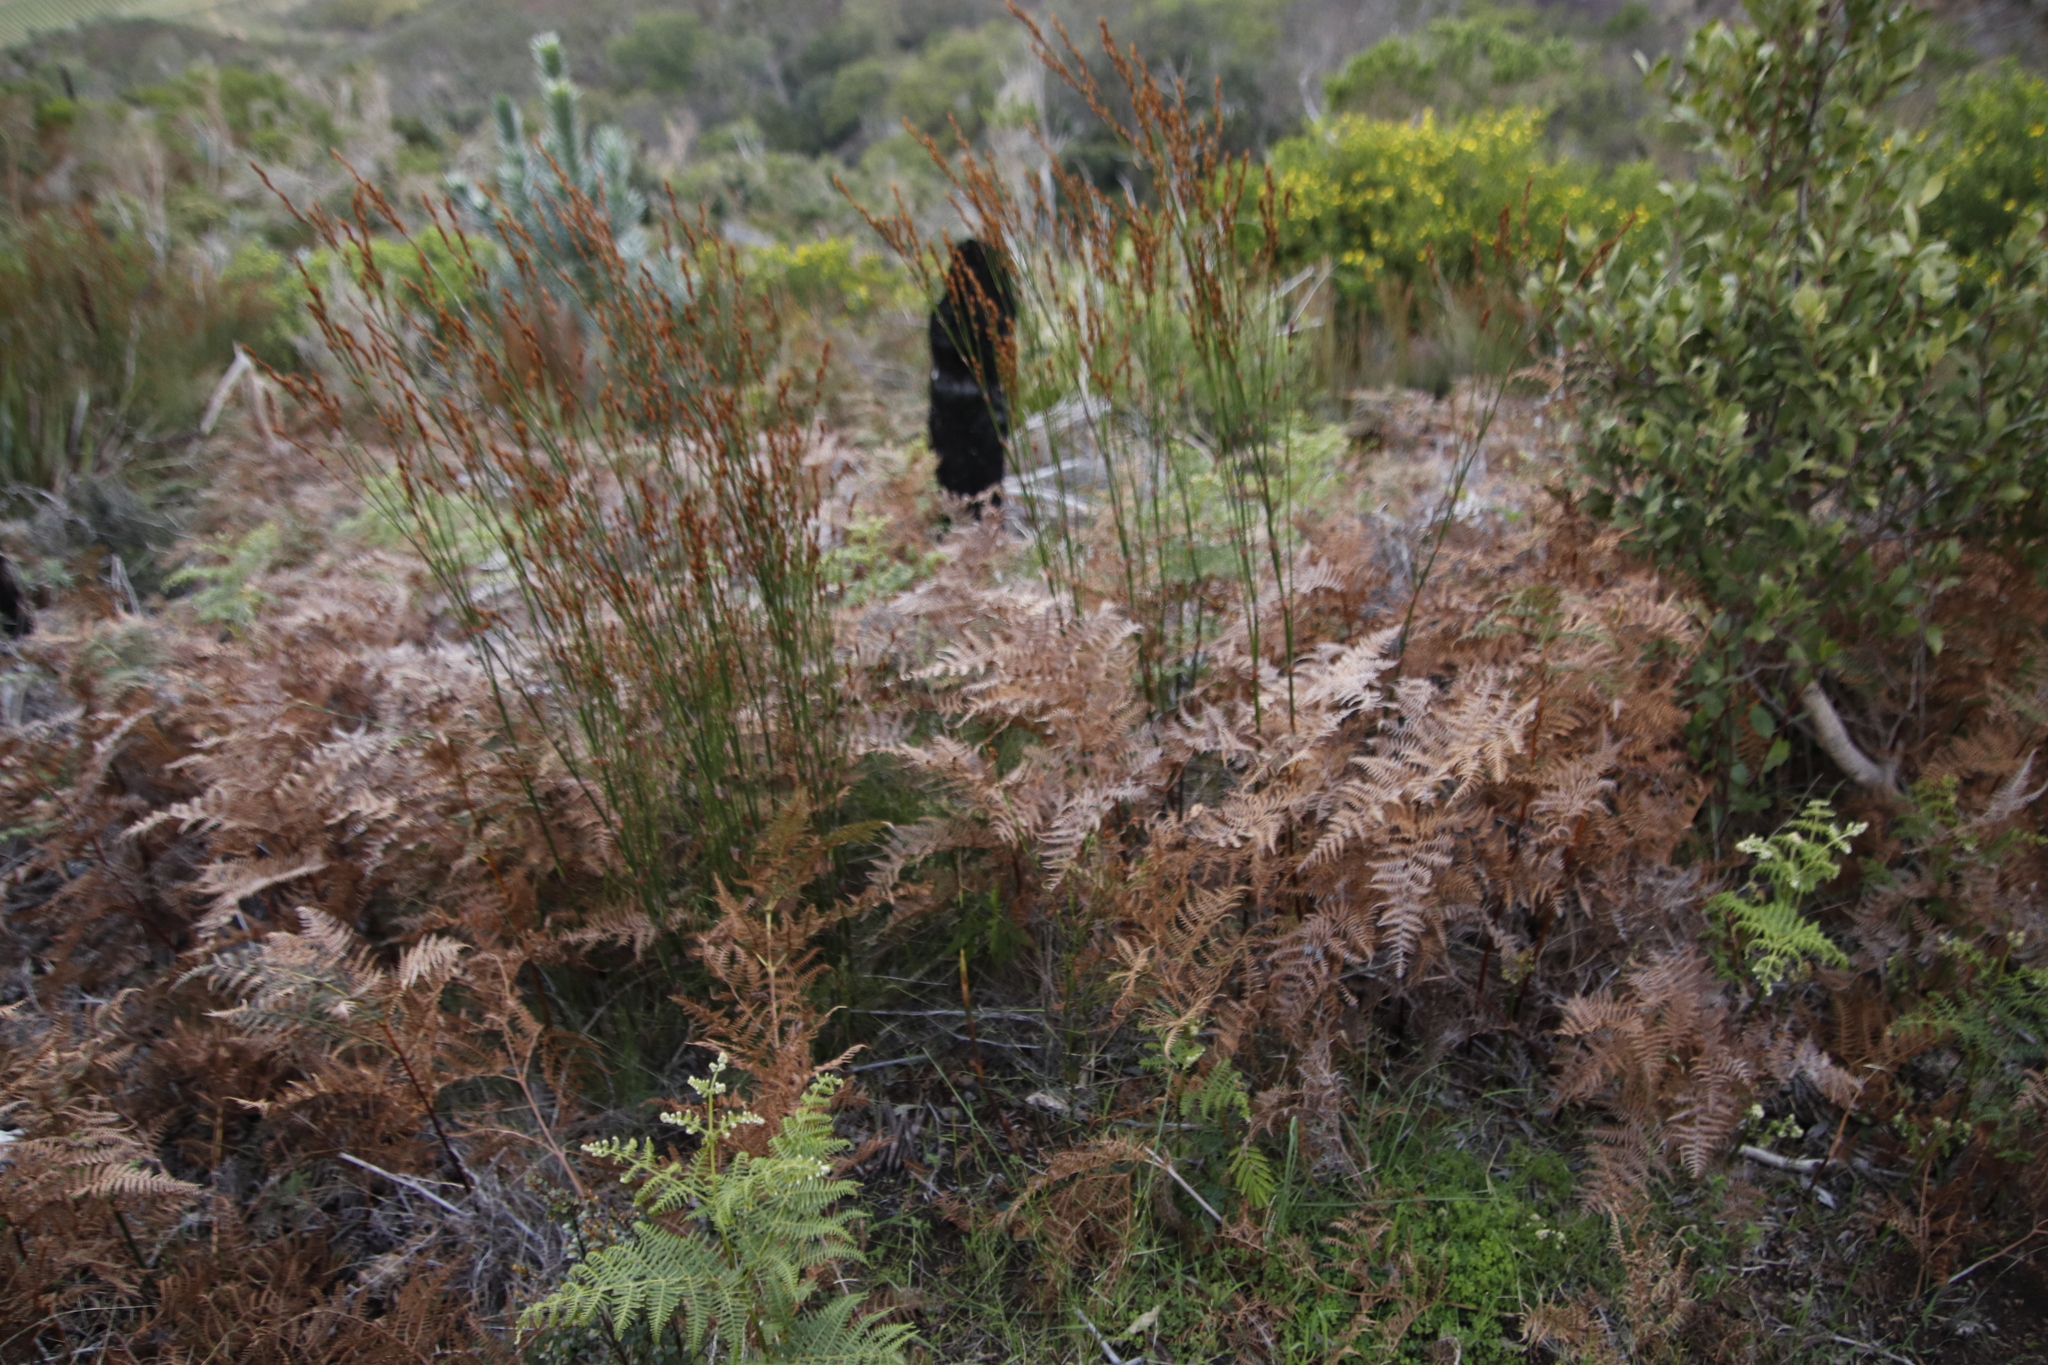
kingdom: Plantae
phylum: Tracheophyta
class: Polypodiopsida
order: Polypodiales
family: Dennstaedtiaceae
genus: Pteridium
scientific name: Pteridium aquilinum
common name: Bracken
